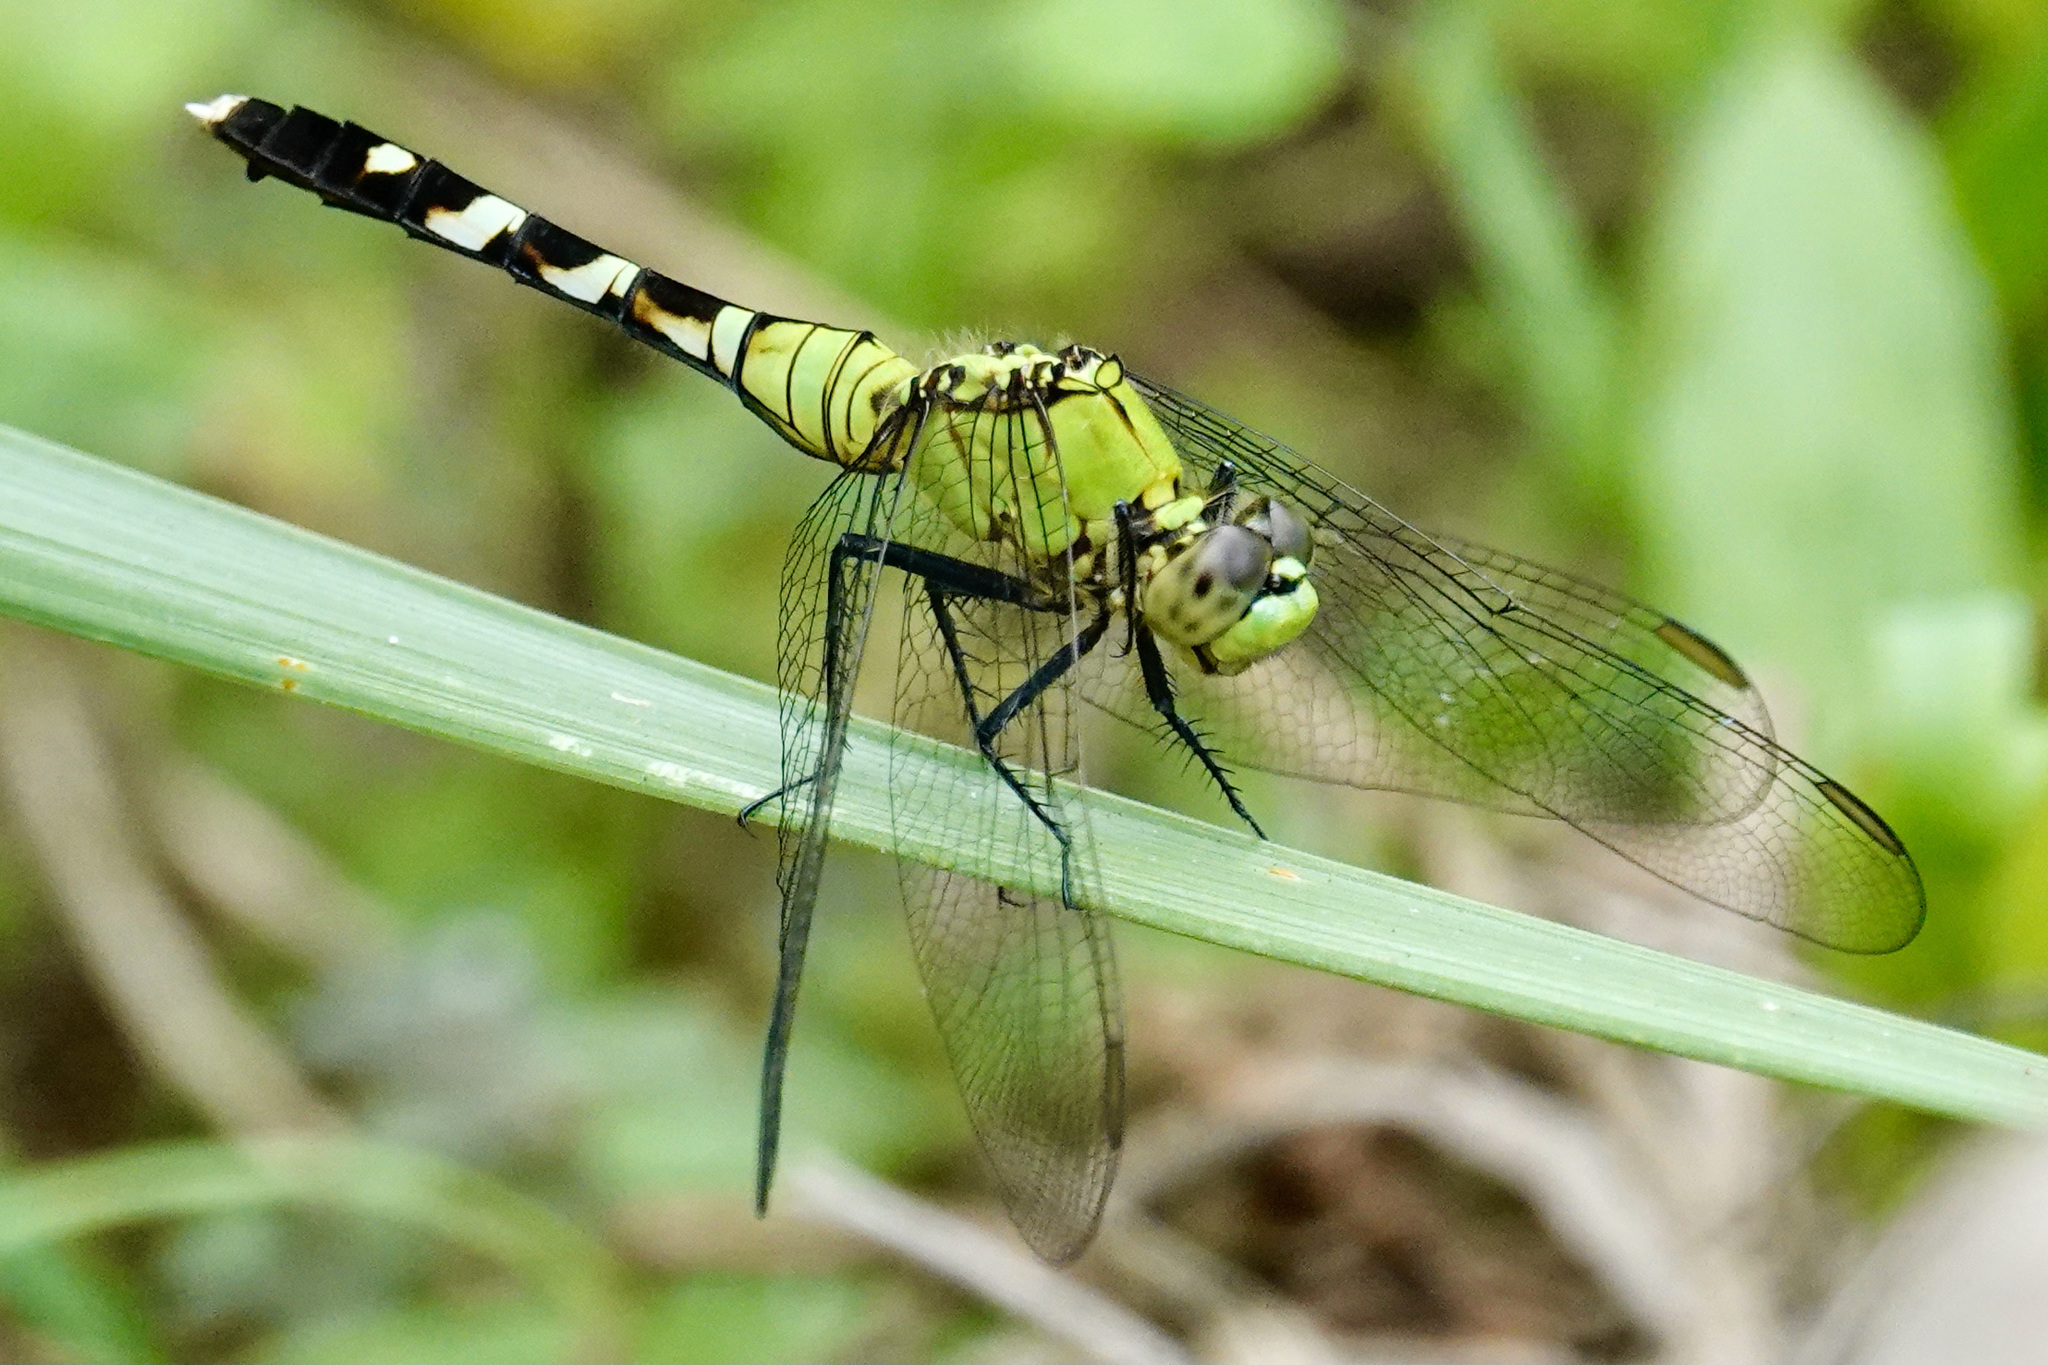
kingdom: Animalia
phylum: Arthropoda
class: Insecta
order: Odonata
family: Libellulidae
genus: Erythemis
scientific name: Erythemis simplicicollis
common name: Eastern pondhawk
